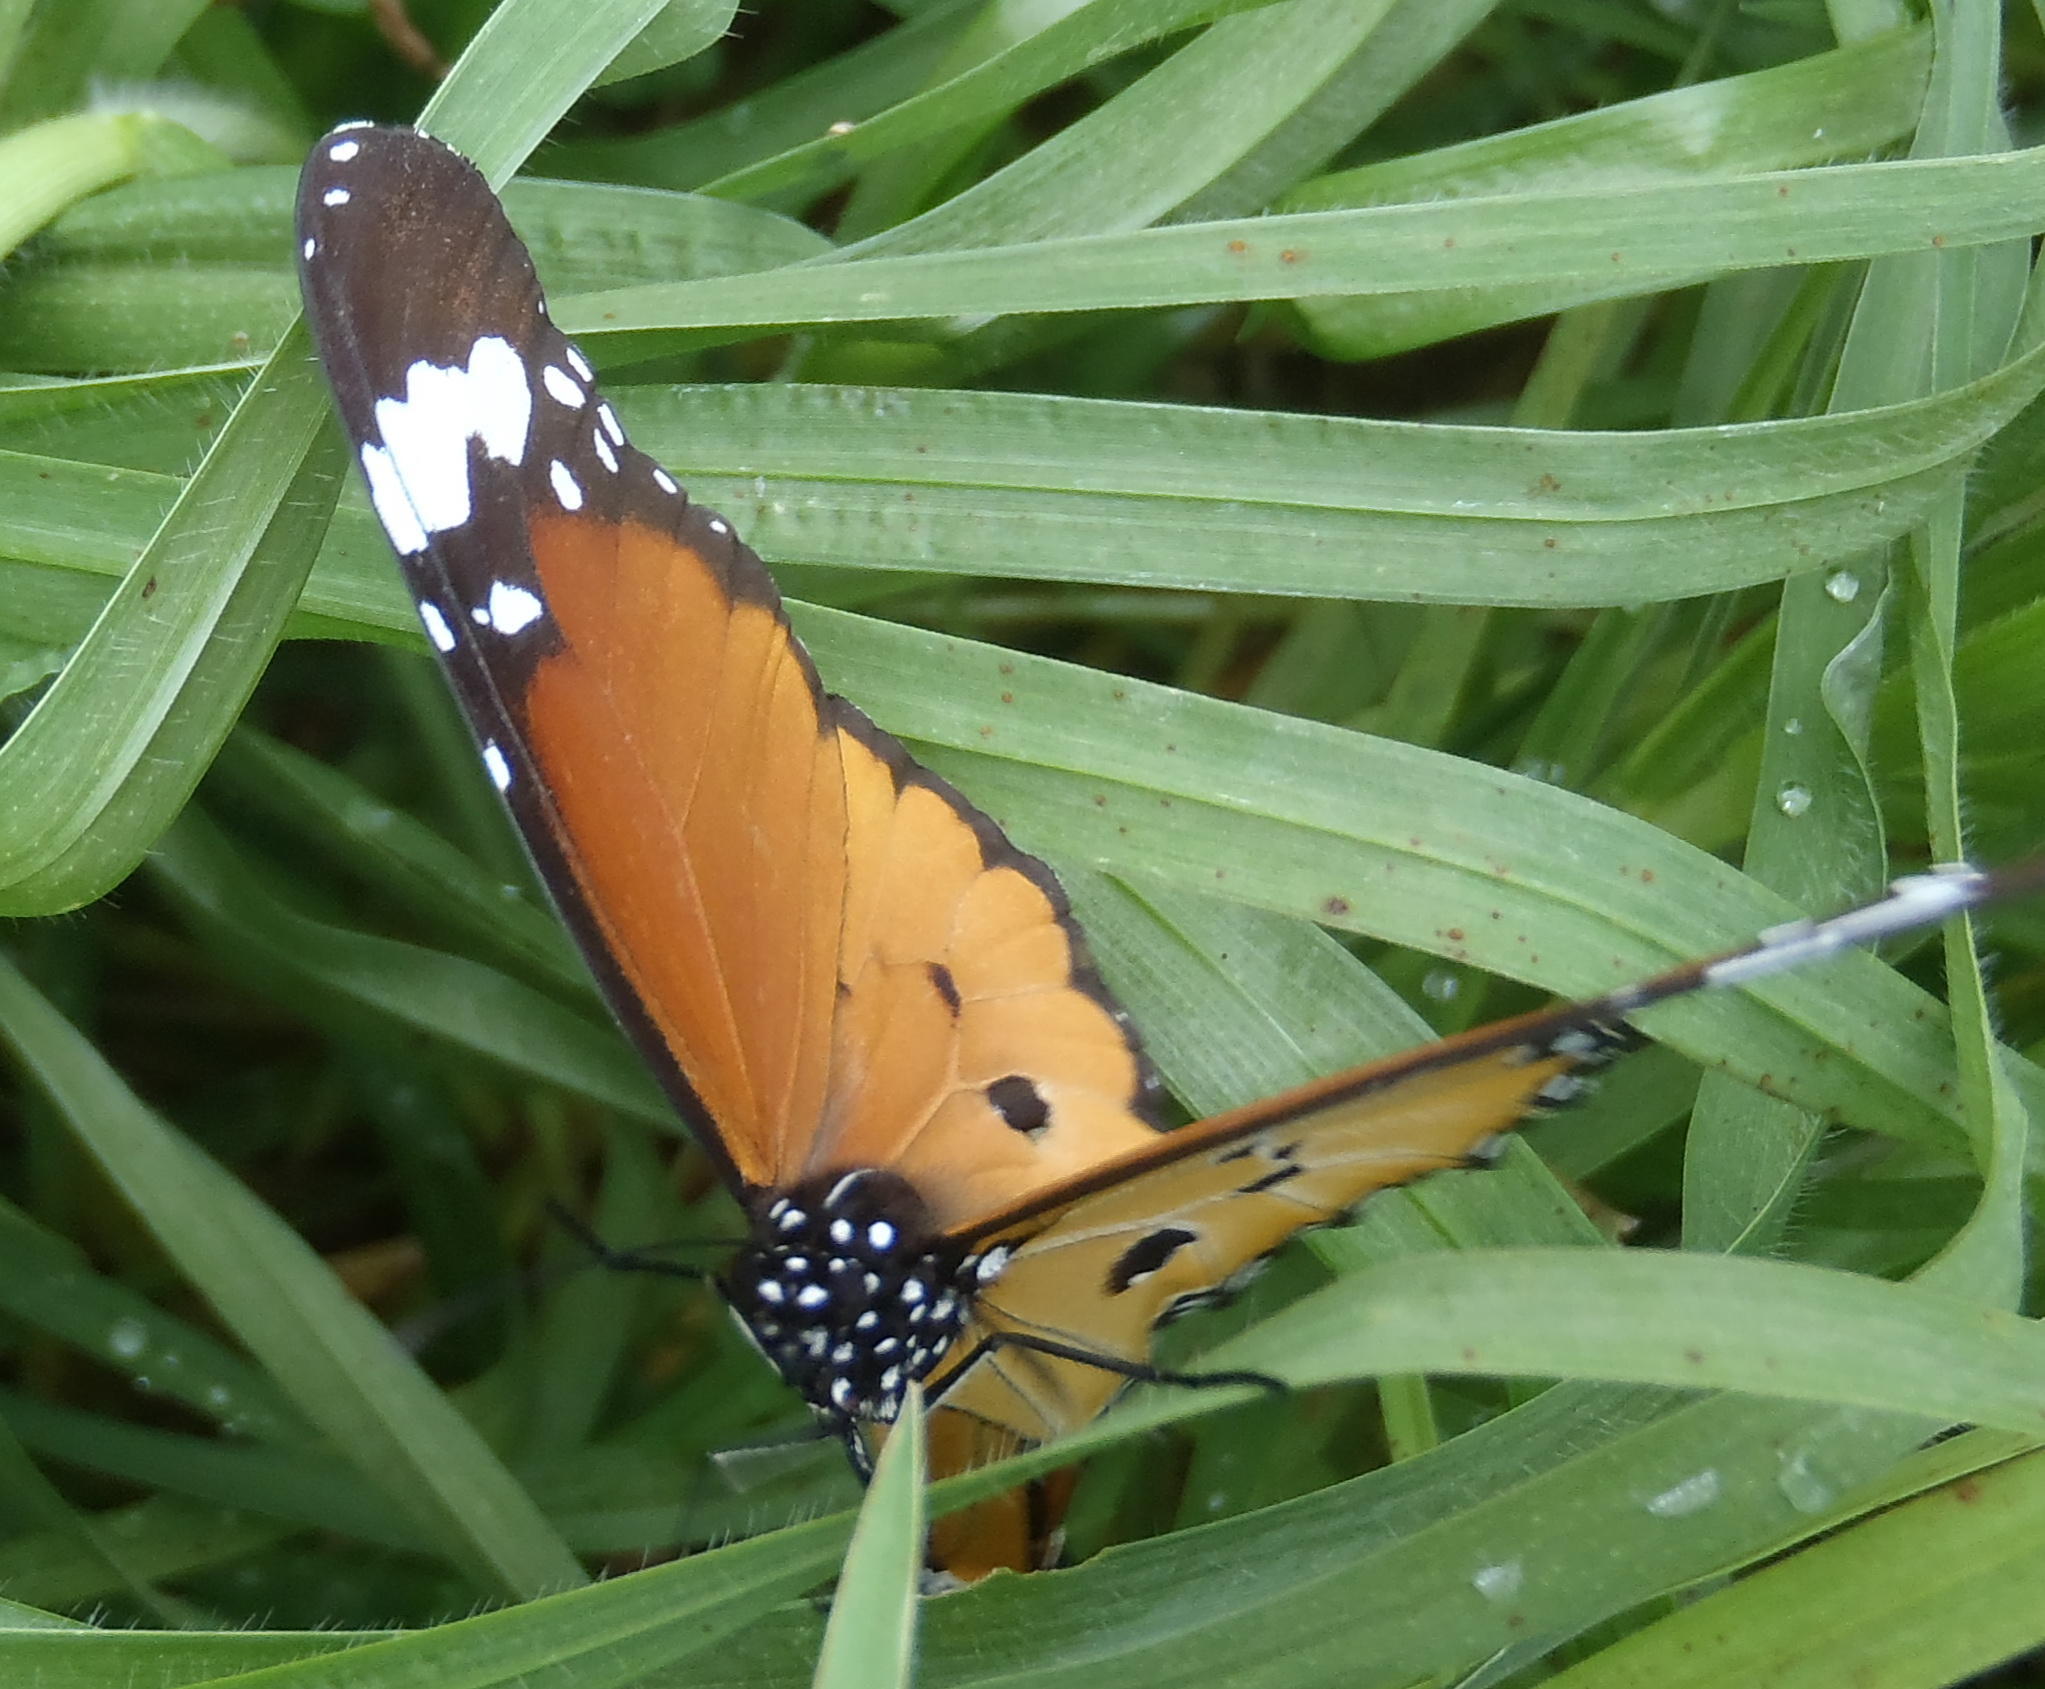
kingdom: Animalia
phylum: Arthropoda
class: Insecta
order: Lepidoptera
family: Nymphalidae
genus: Danaus
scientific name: Danaus chrysippus
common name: Plain tiger
